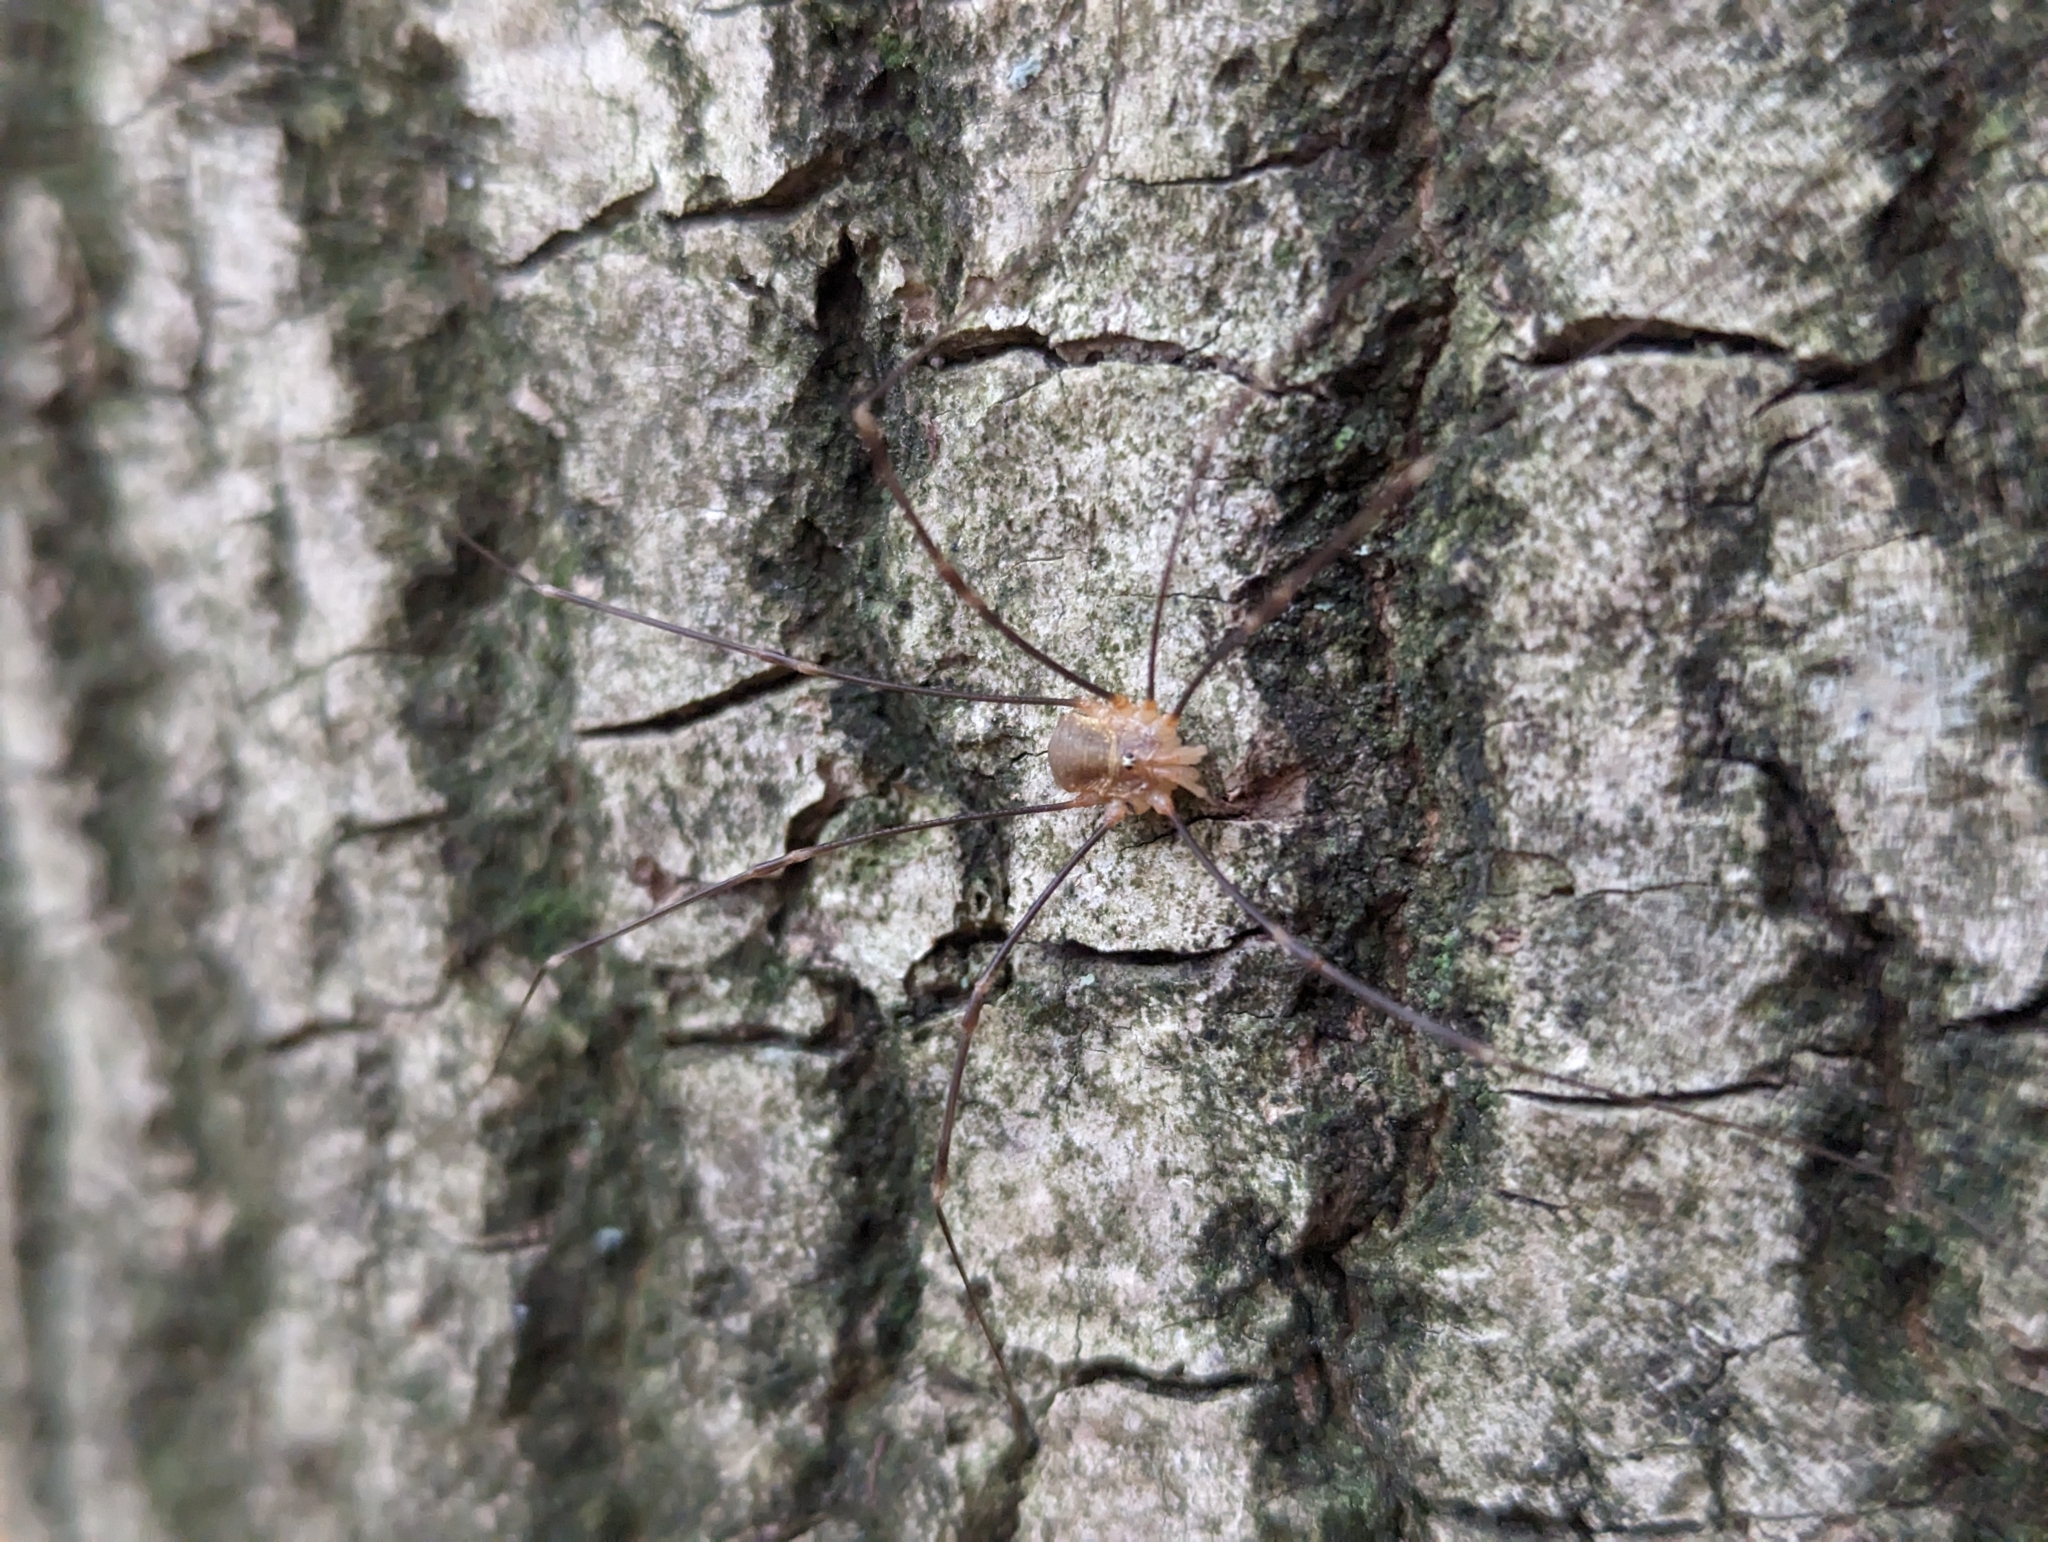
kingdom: Animalia
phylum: Arthropoda
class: Arachnida
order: Opiliones
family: Phalangiidae
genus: Opilio
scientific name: Opilio canestrinii
